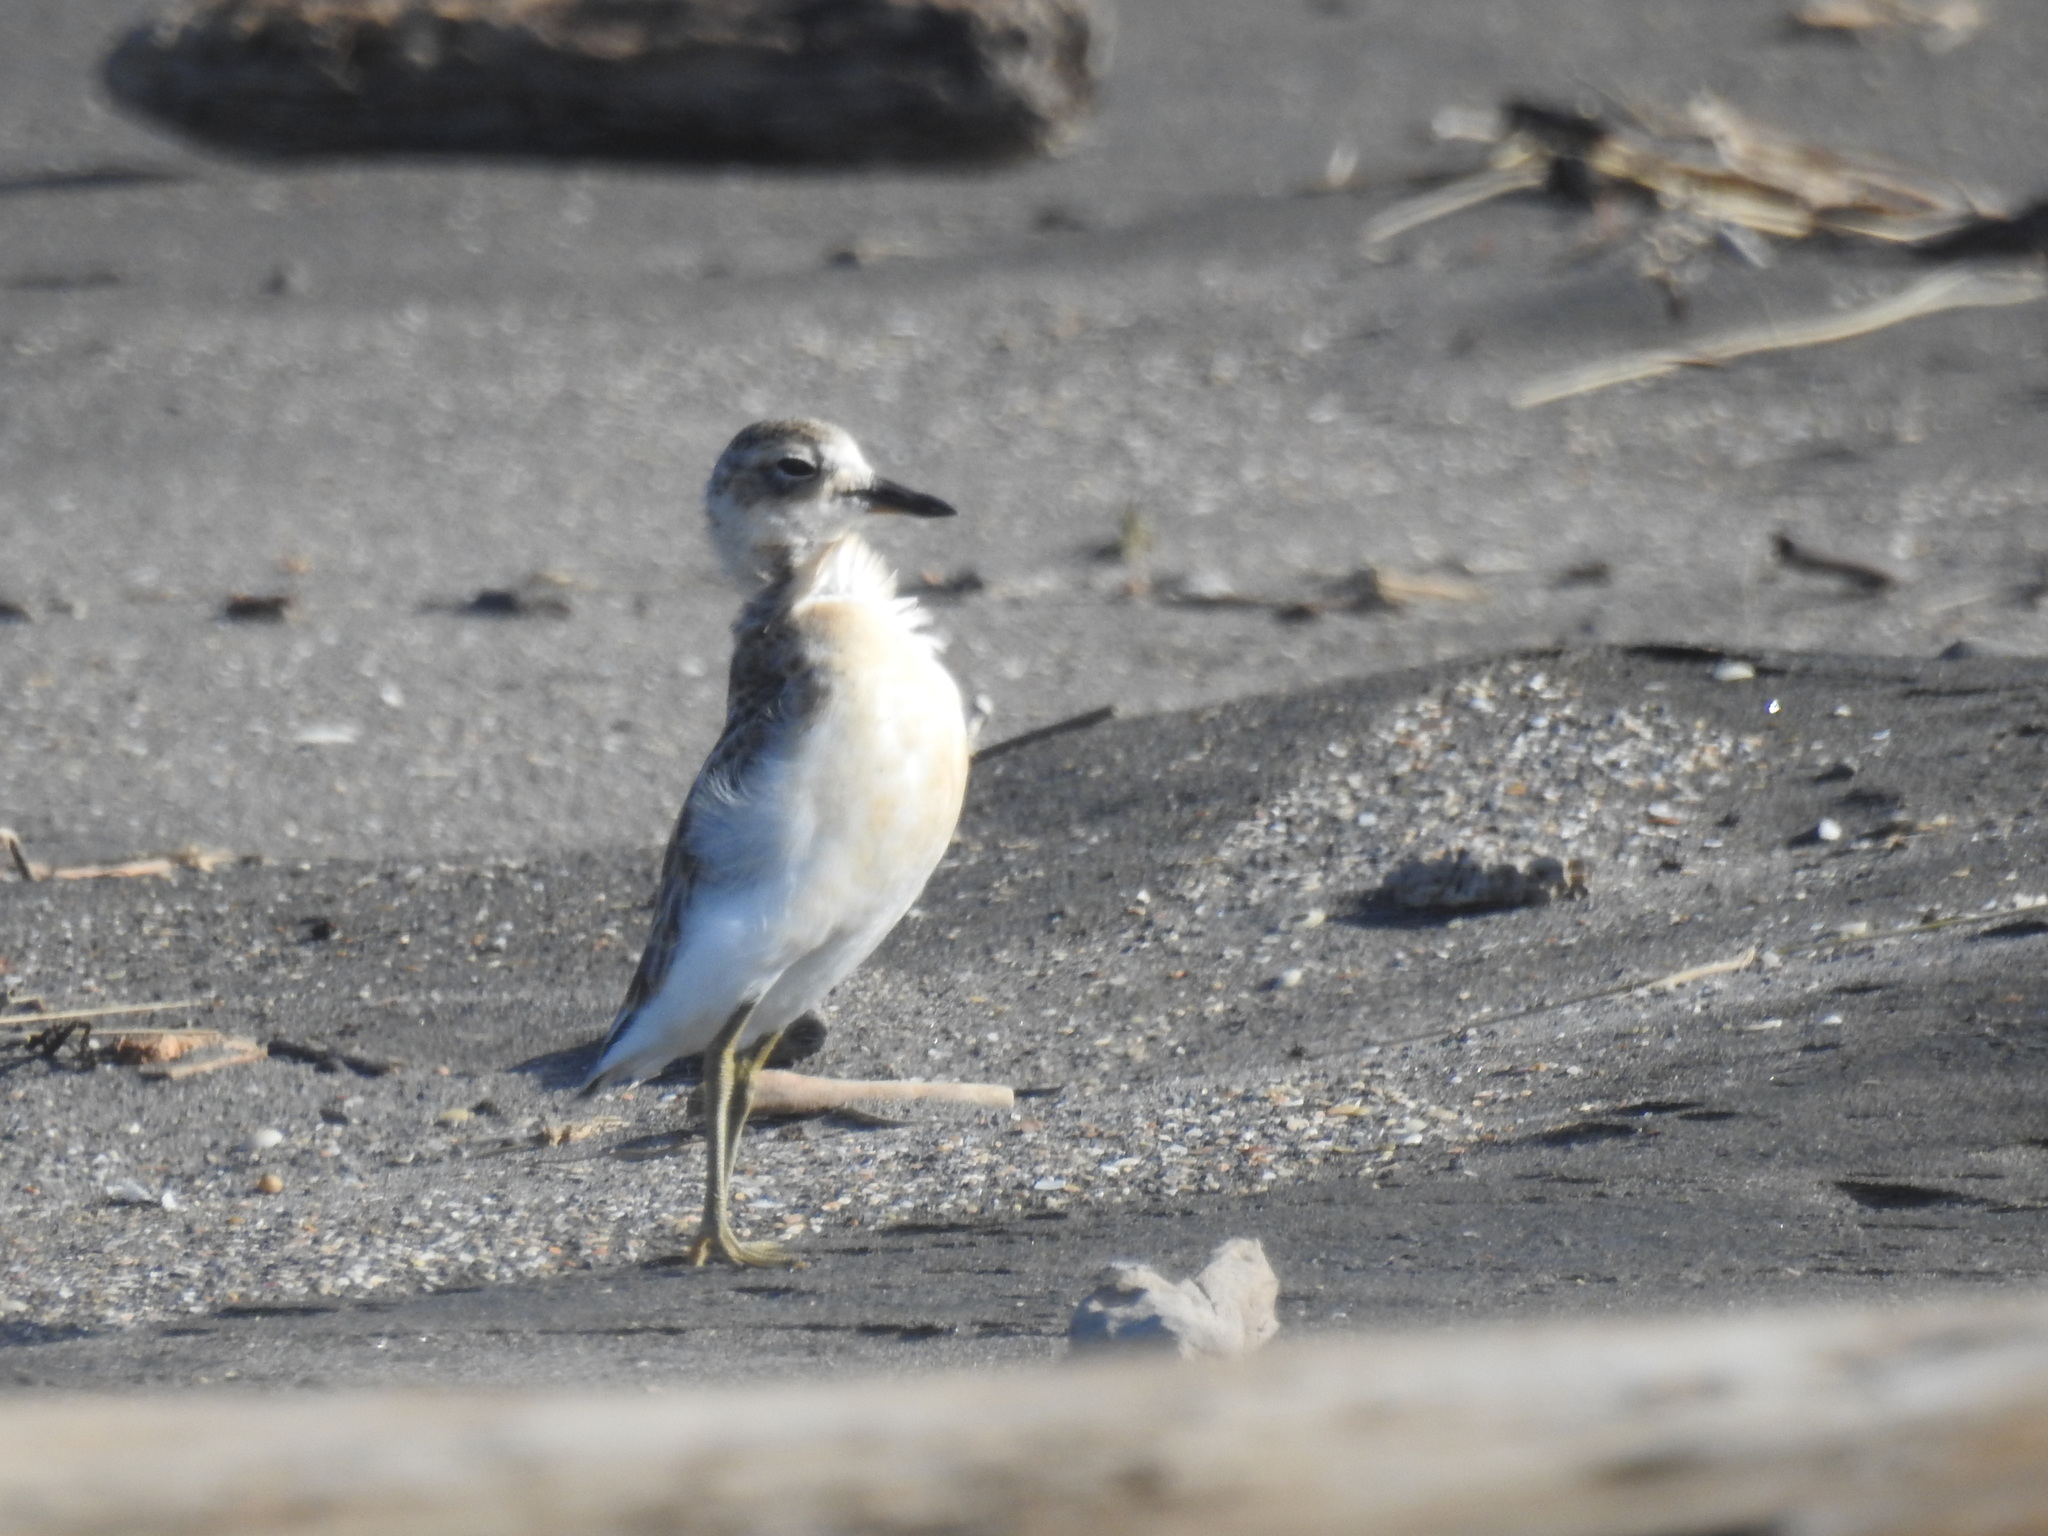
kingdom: Animalia
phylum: Chordata
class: Aves
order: Charadriiformes
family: Charadriidae
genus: Anarhynchus
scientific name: Anarhynchus
